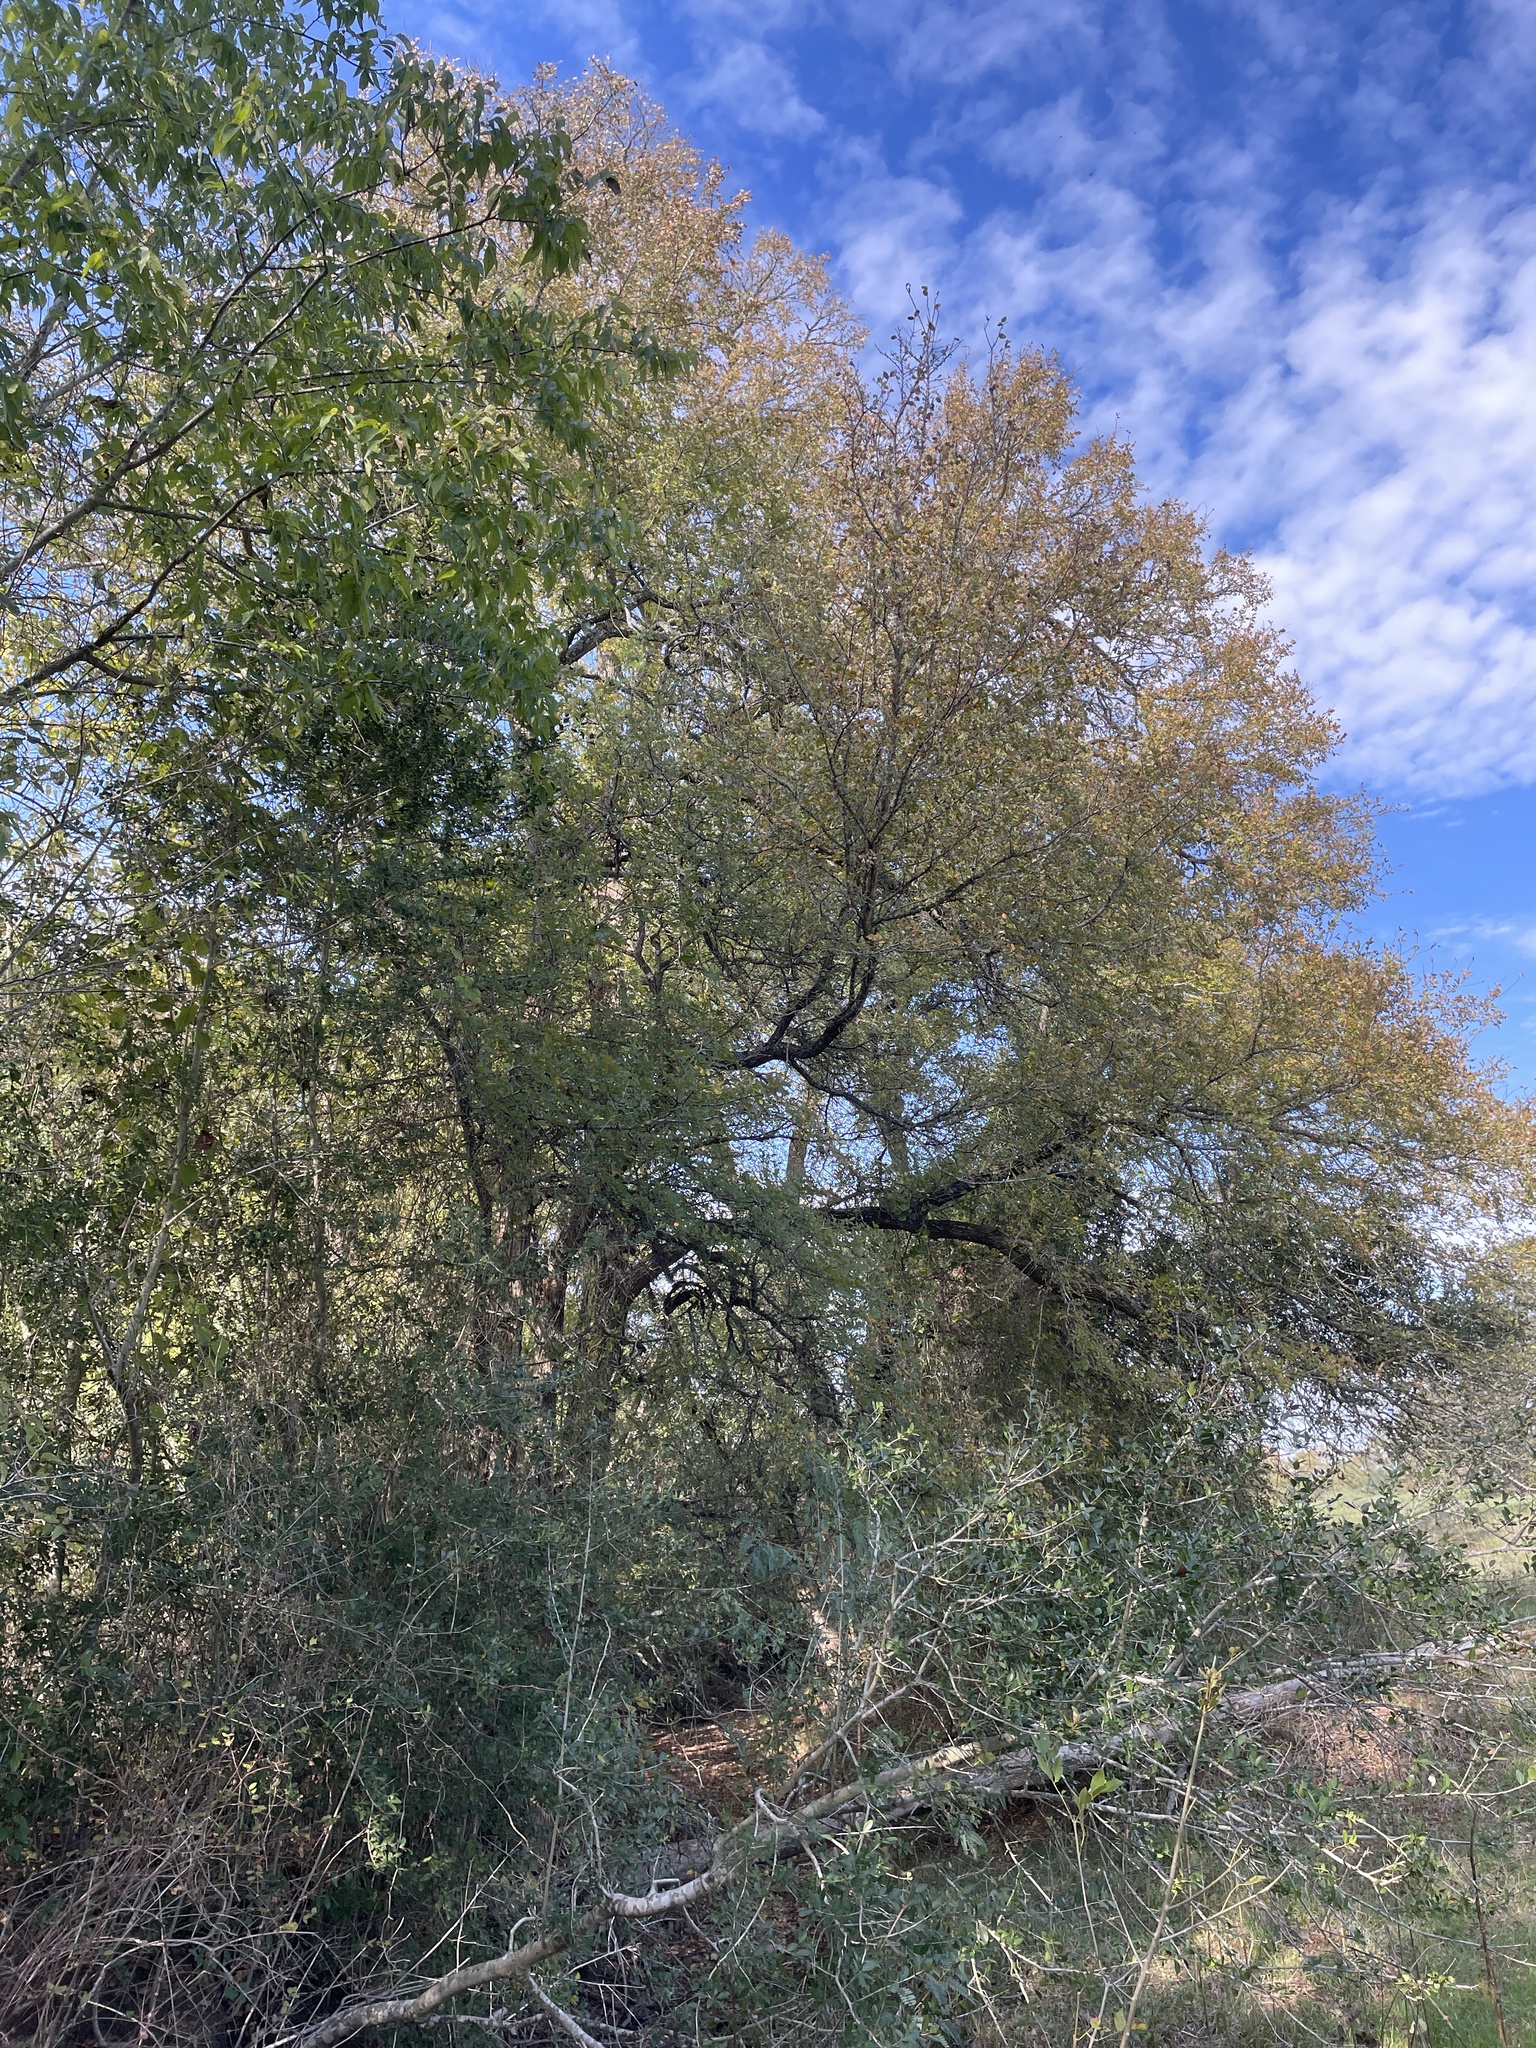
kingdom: Plantae
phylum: Tracheophyta
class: Magnoliopsida
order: Rosales
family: Ulmaceae
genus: Ulmus
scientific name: Ulmus crassifolia
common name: Basket elm
